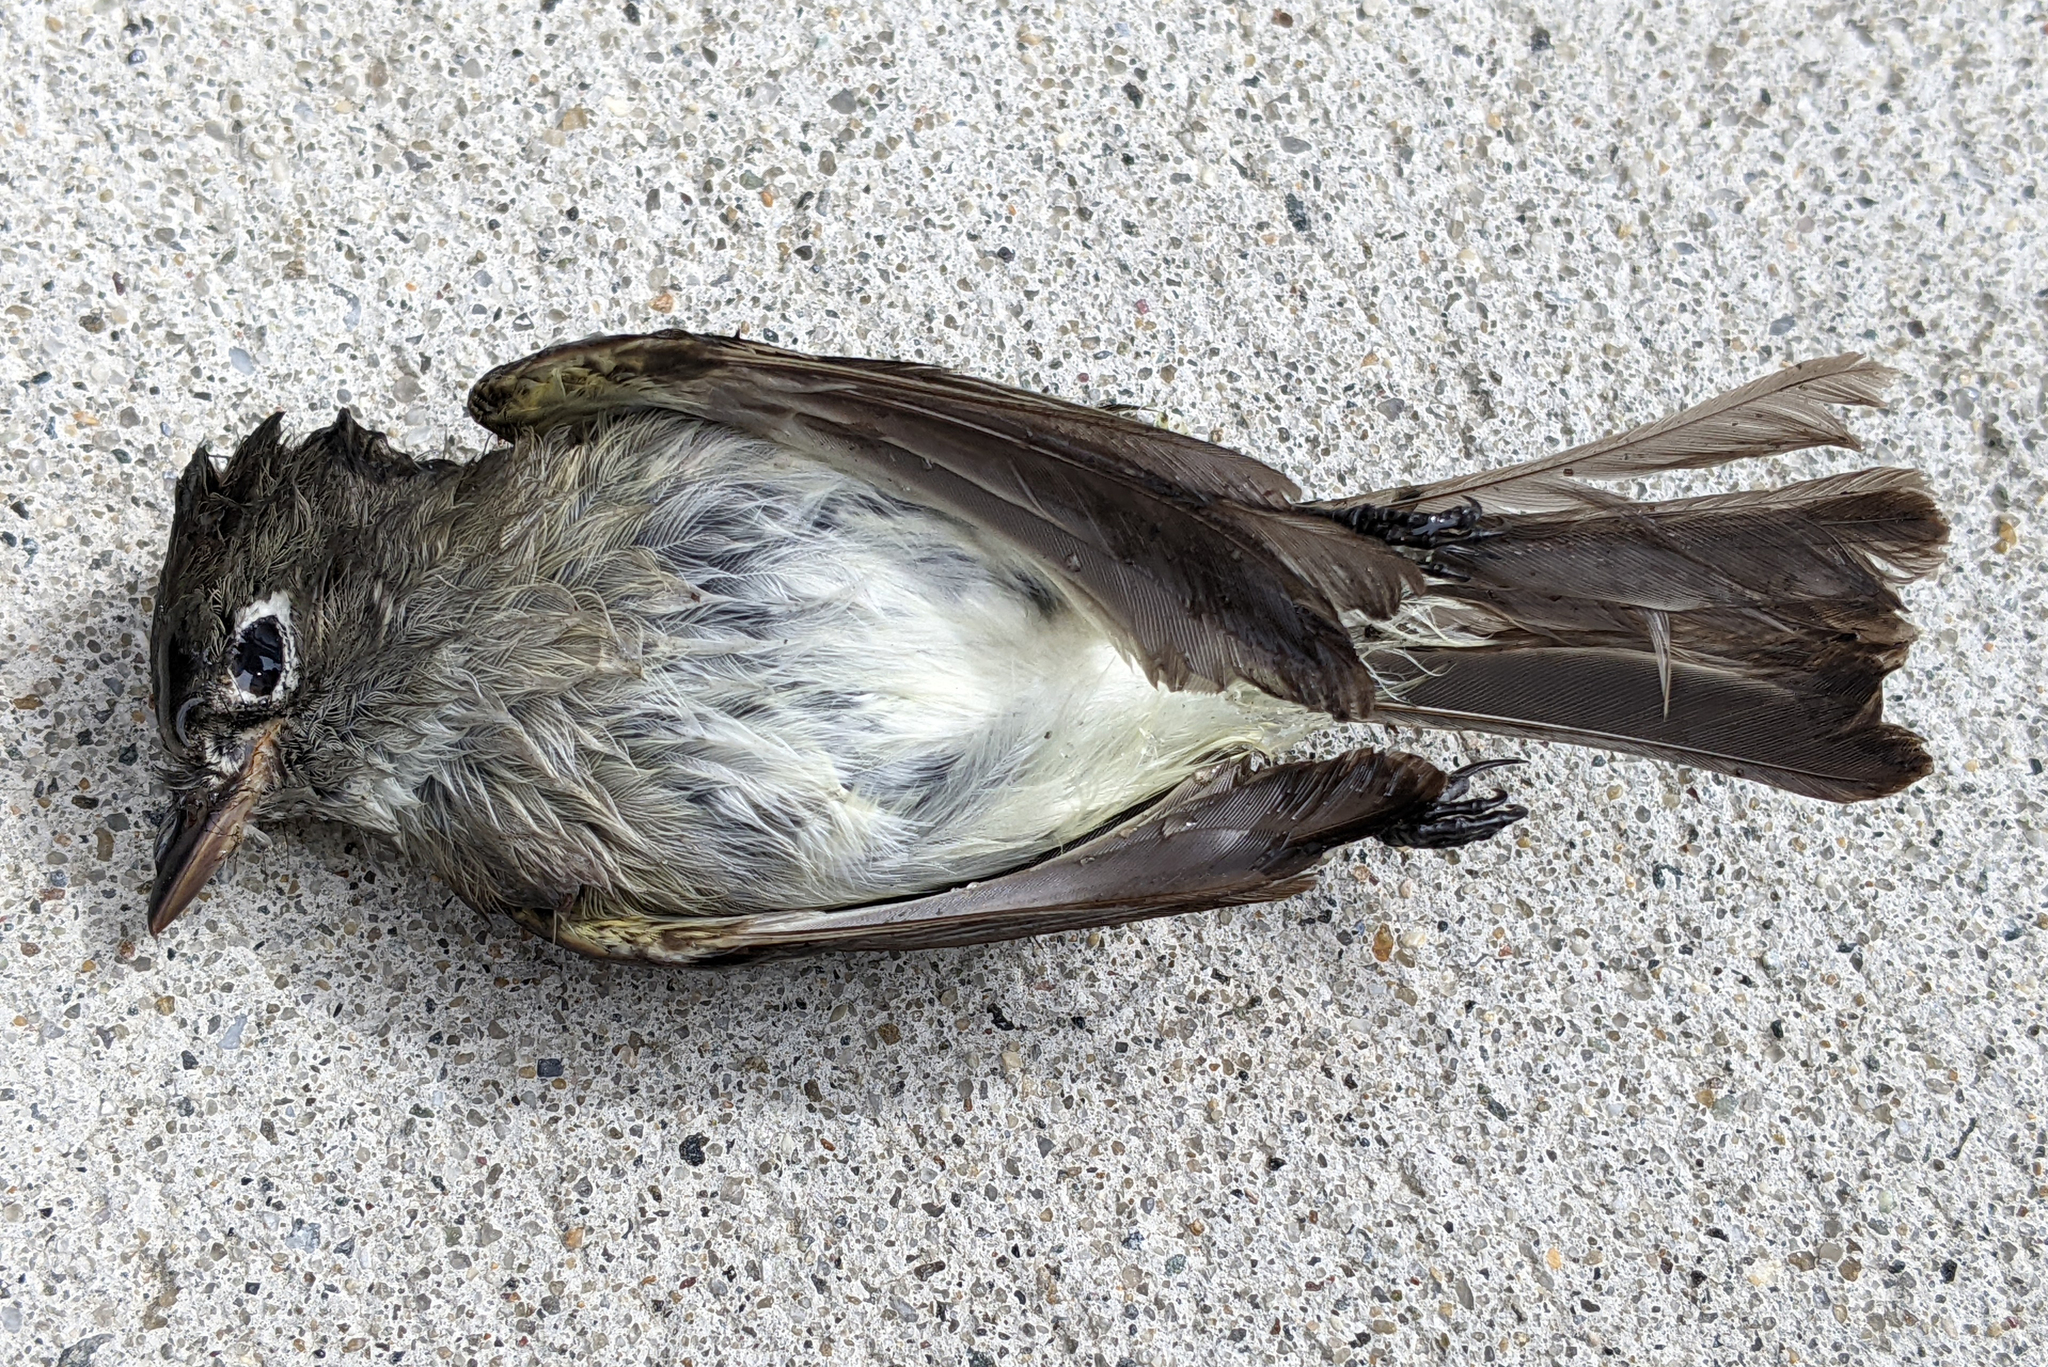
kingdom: Animalia
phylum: Chordata
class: Aves
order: Passeriformes
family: Tyrannidae
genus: Empidonax
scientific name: Empidonax minimus
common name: Least flycatcher
